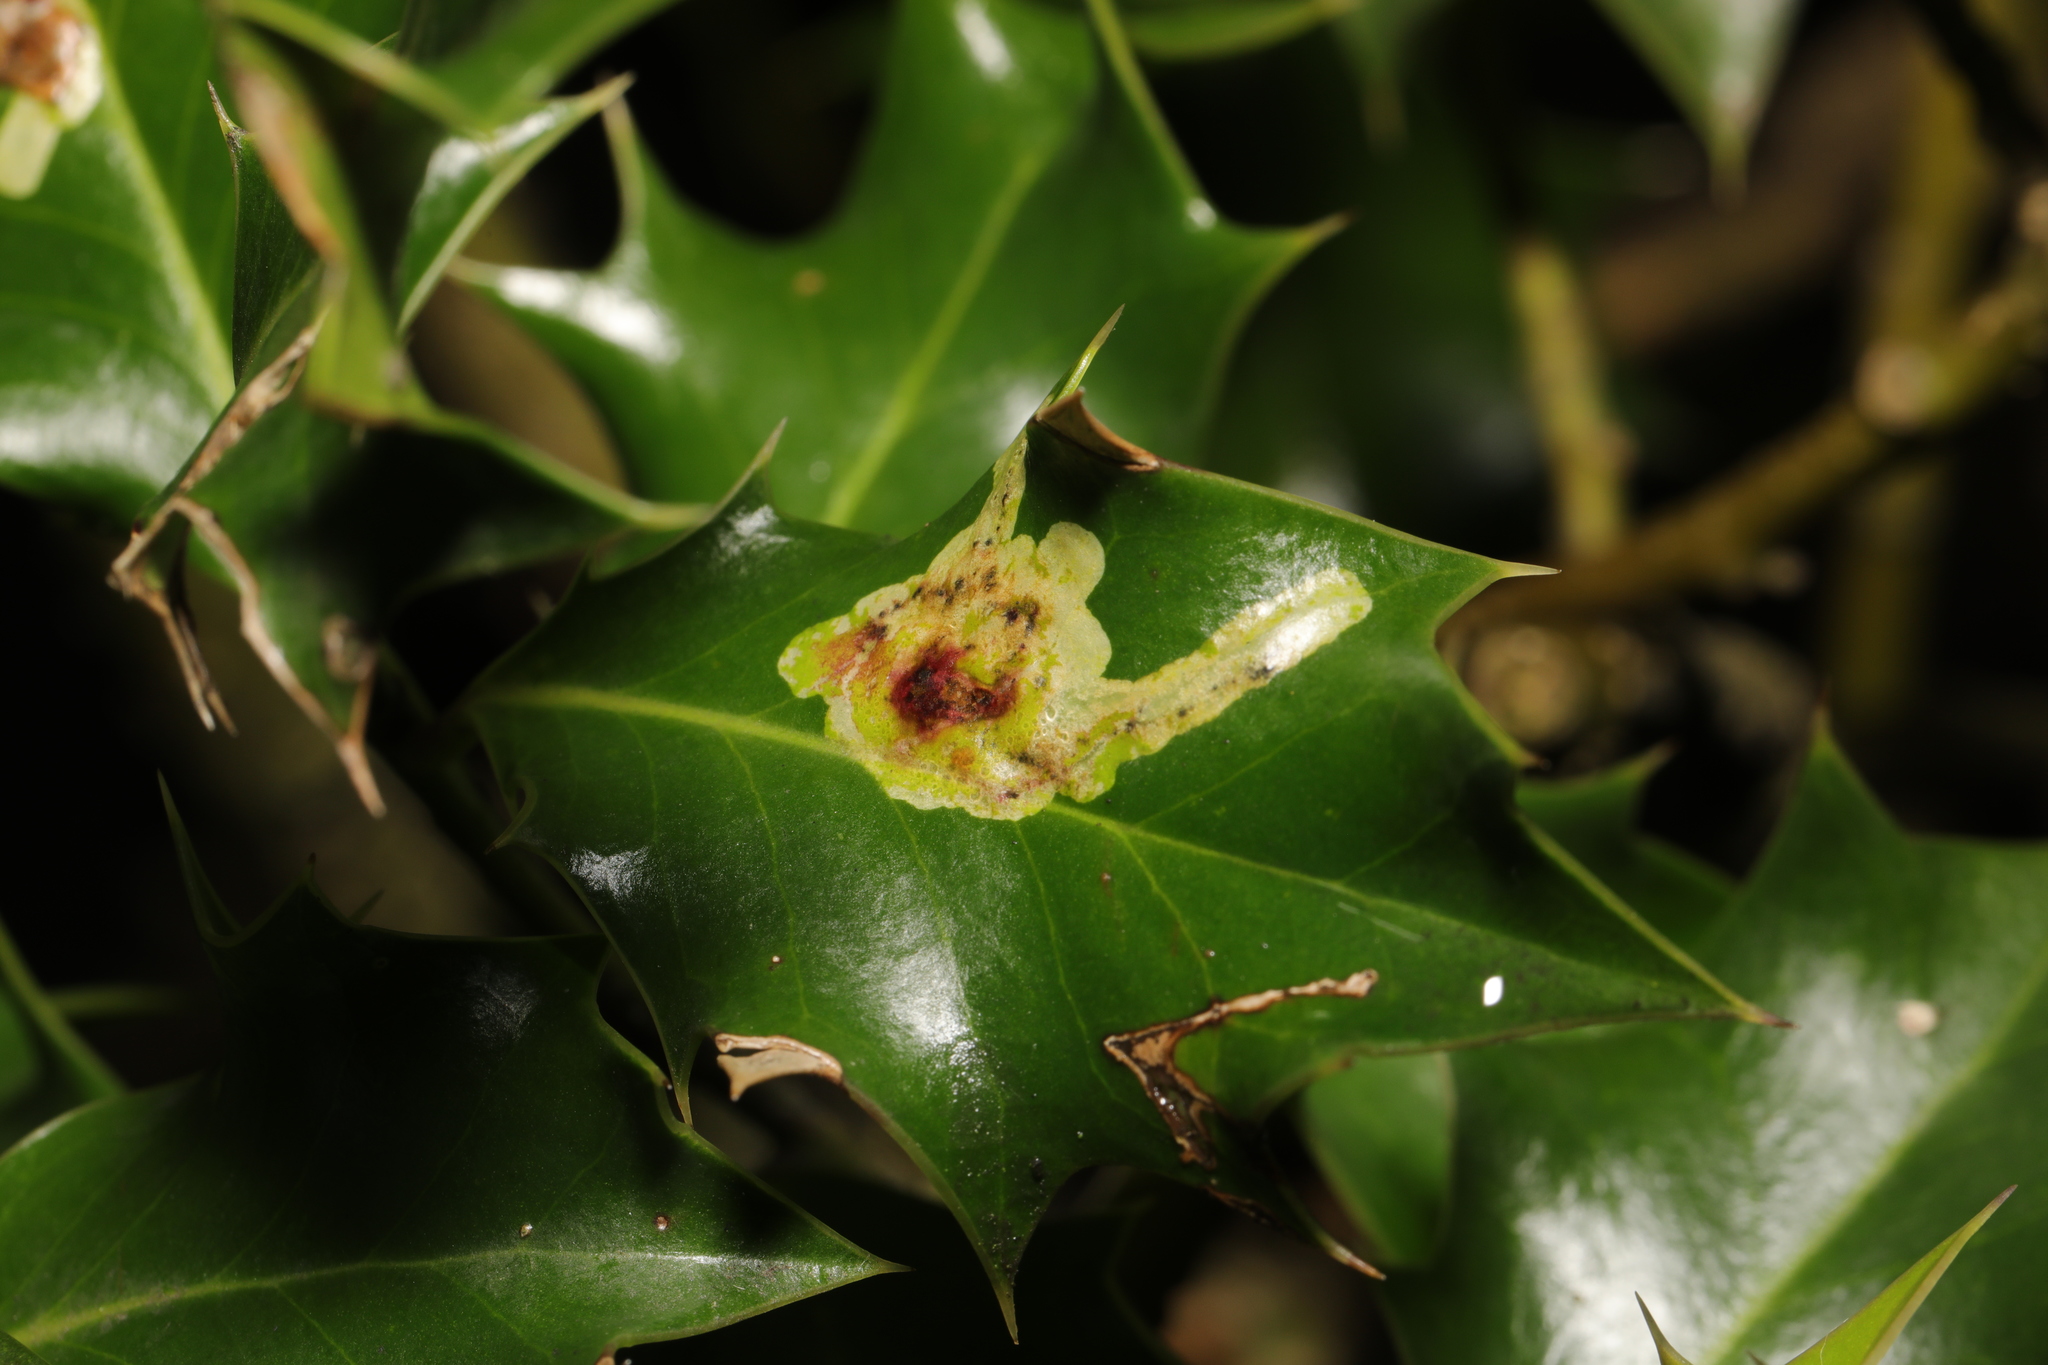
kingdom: Animalia
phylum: Arthropoda
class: Insecta
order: Diptera
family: Agromyzidae
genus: Phytomyza
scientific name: Phytomyza ilicis
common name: Holly leafminer
